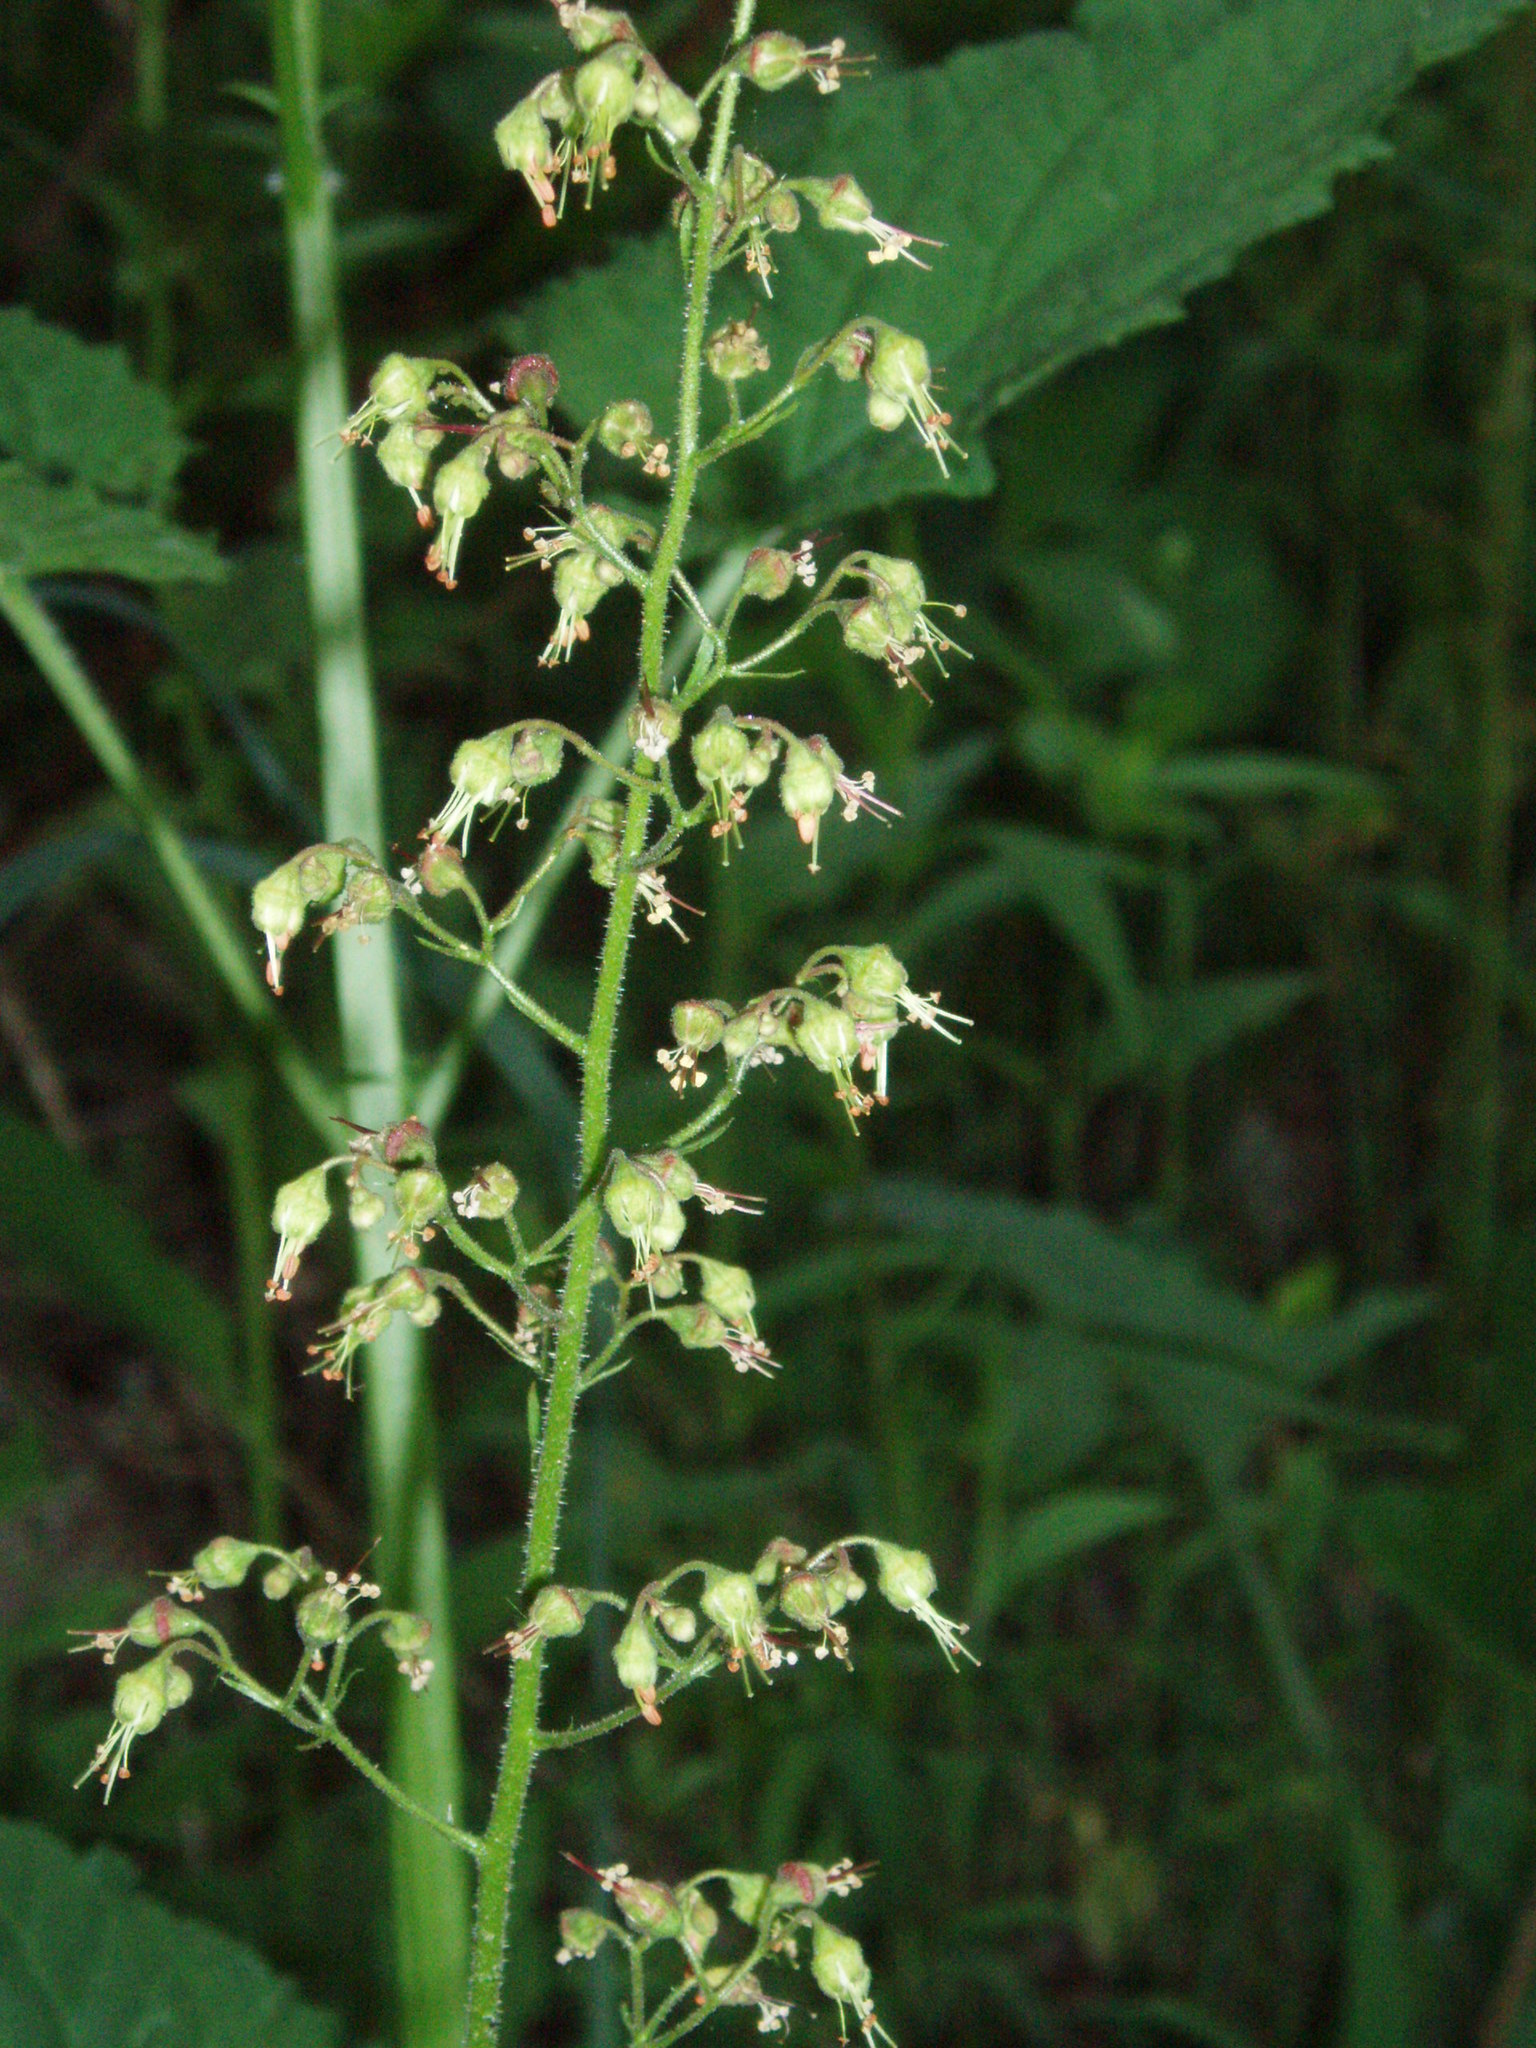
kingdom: Plantae
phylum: Tracheophyta
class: Magnoliopsida
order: Saxifragales
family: Saxifragaceae
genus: Heuchera
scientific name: Heuchera americana
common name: Alumroot
